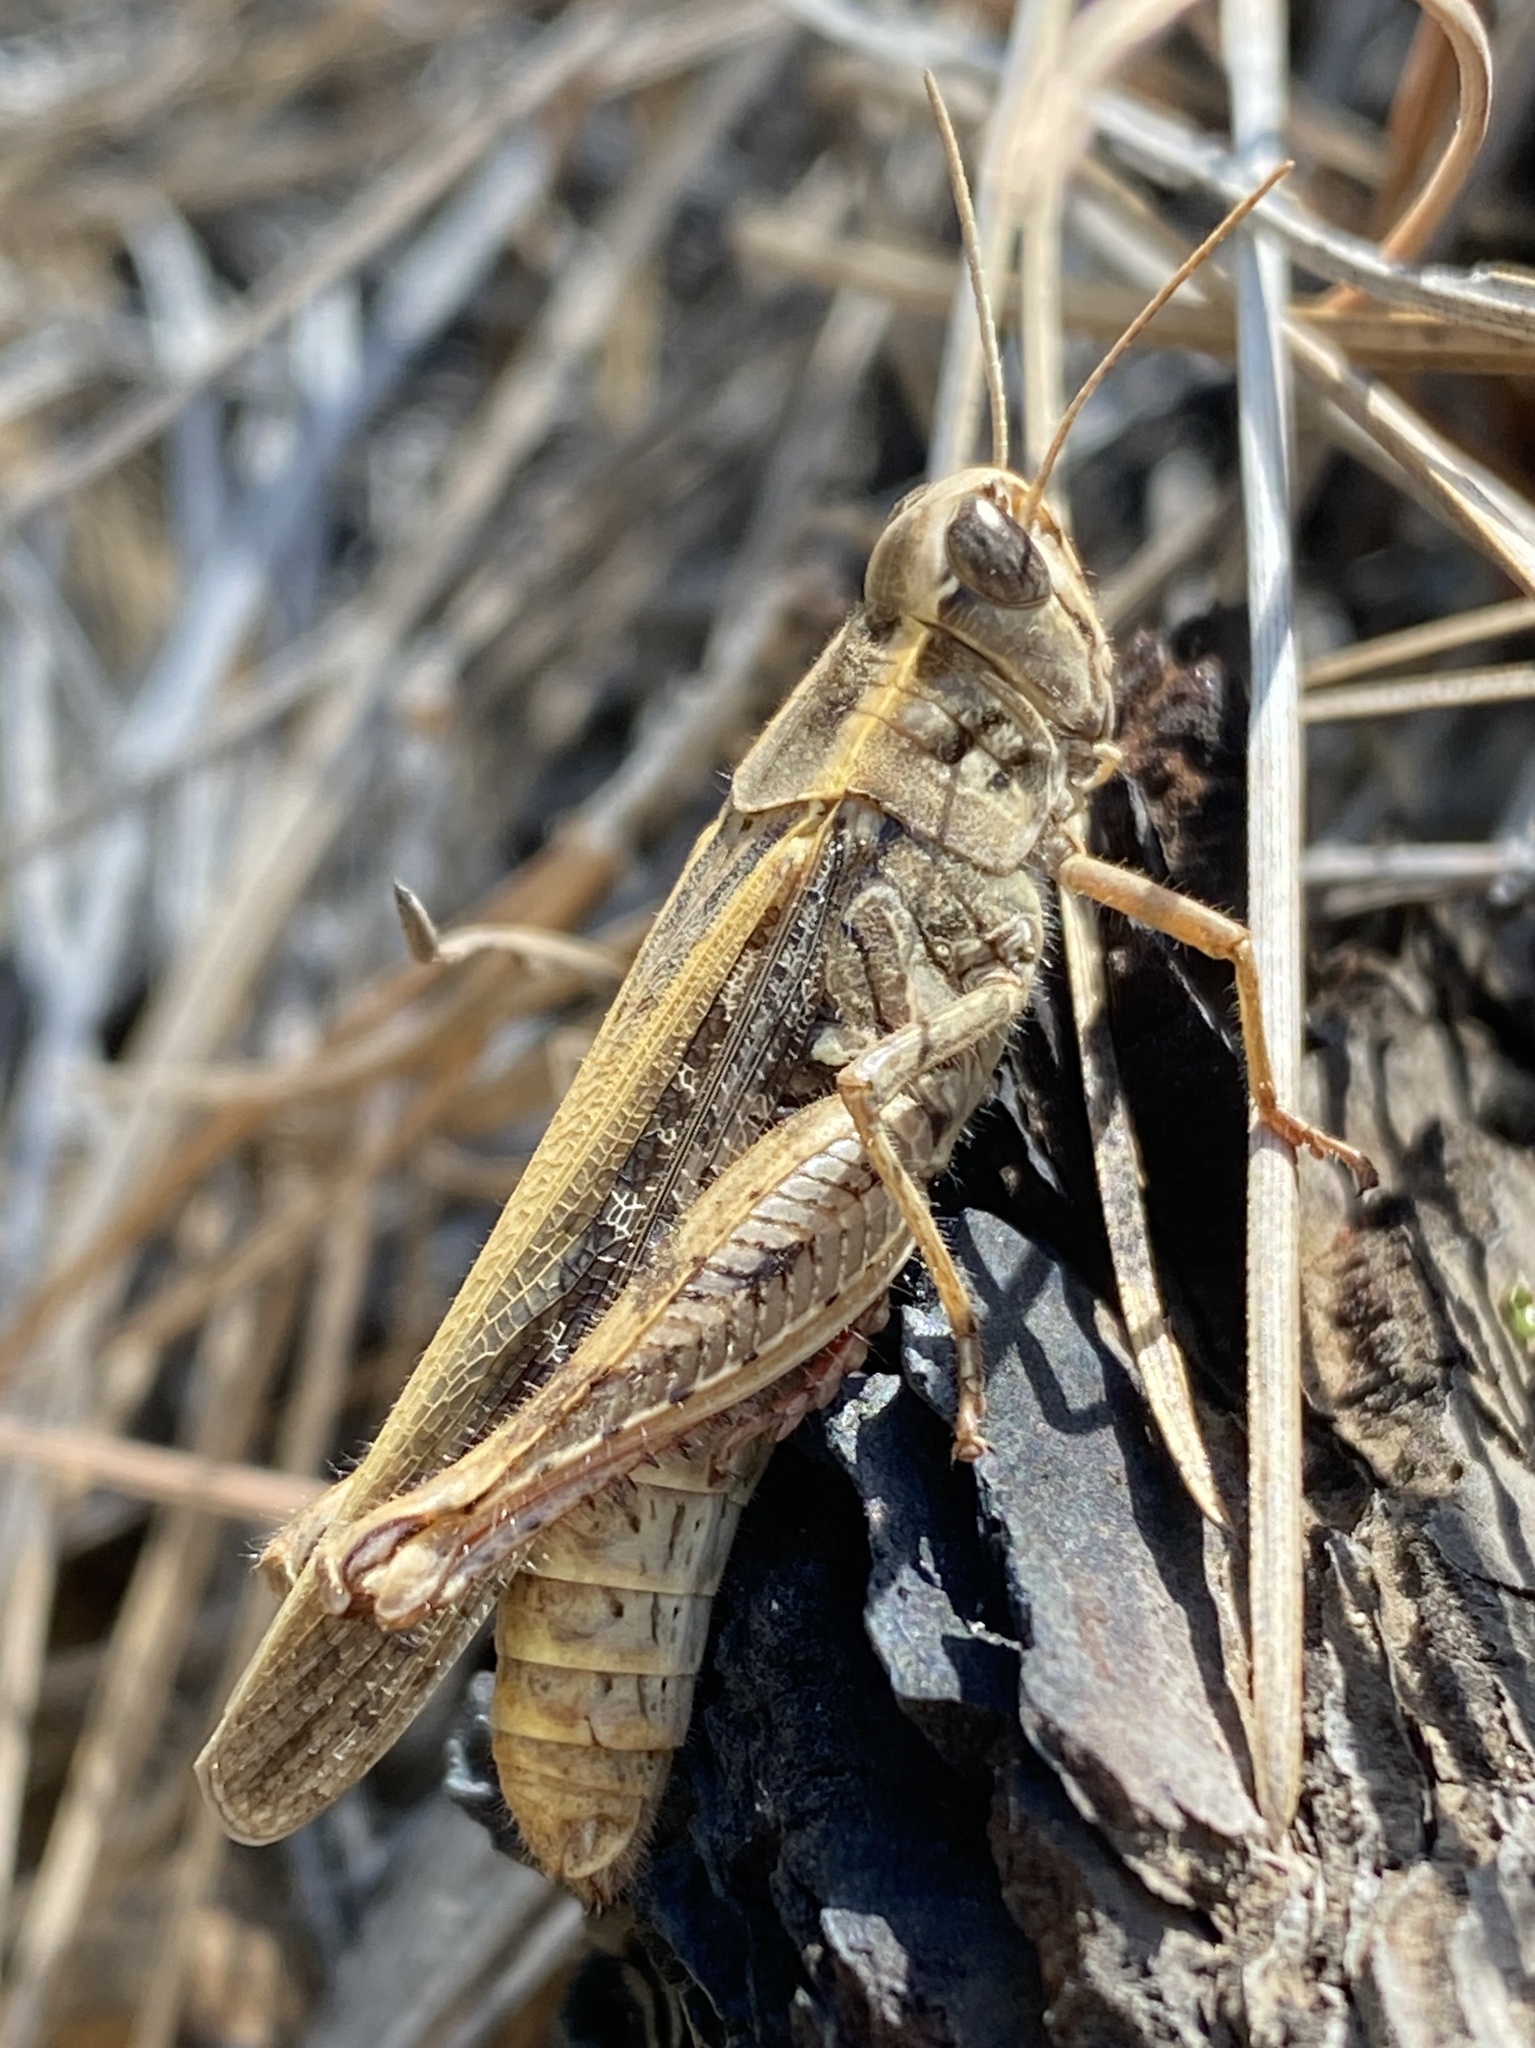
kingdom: Animalia
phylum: Arthropoda
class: Insecta
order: Orthoptera
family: Acrididae
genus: Calliptamus
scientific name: Calliptamus plebeius
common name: Canarian pincer grasshopper
